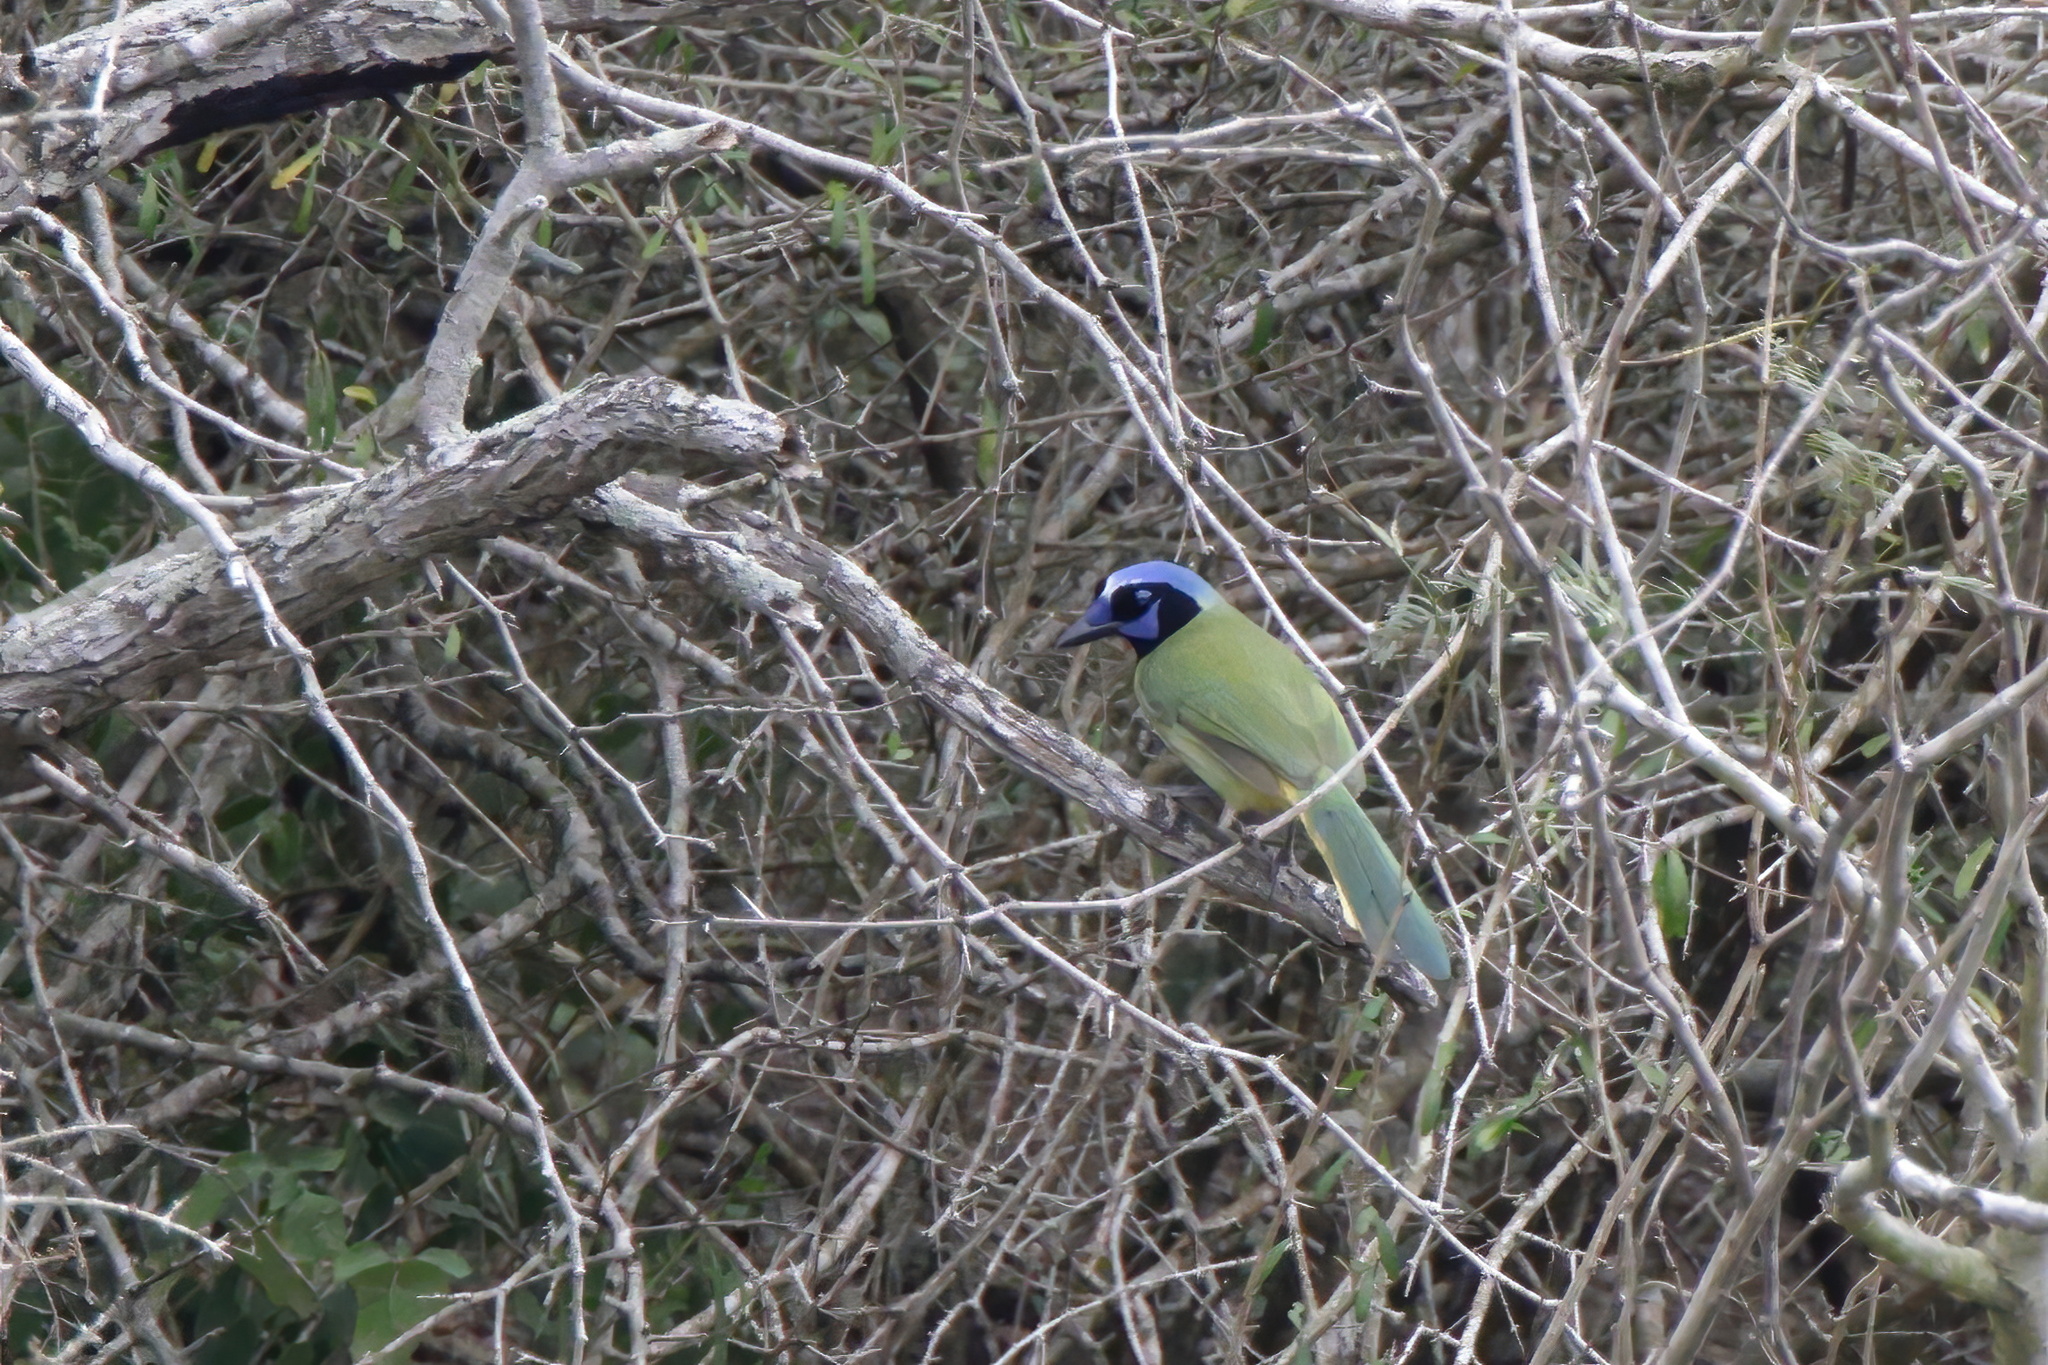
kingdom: Animalia
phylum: Chordata
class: Aves
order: Passeriformes
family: Corvidae
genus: Cyanocorax
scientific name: Cyanocorax yncas
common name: Green jay
